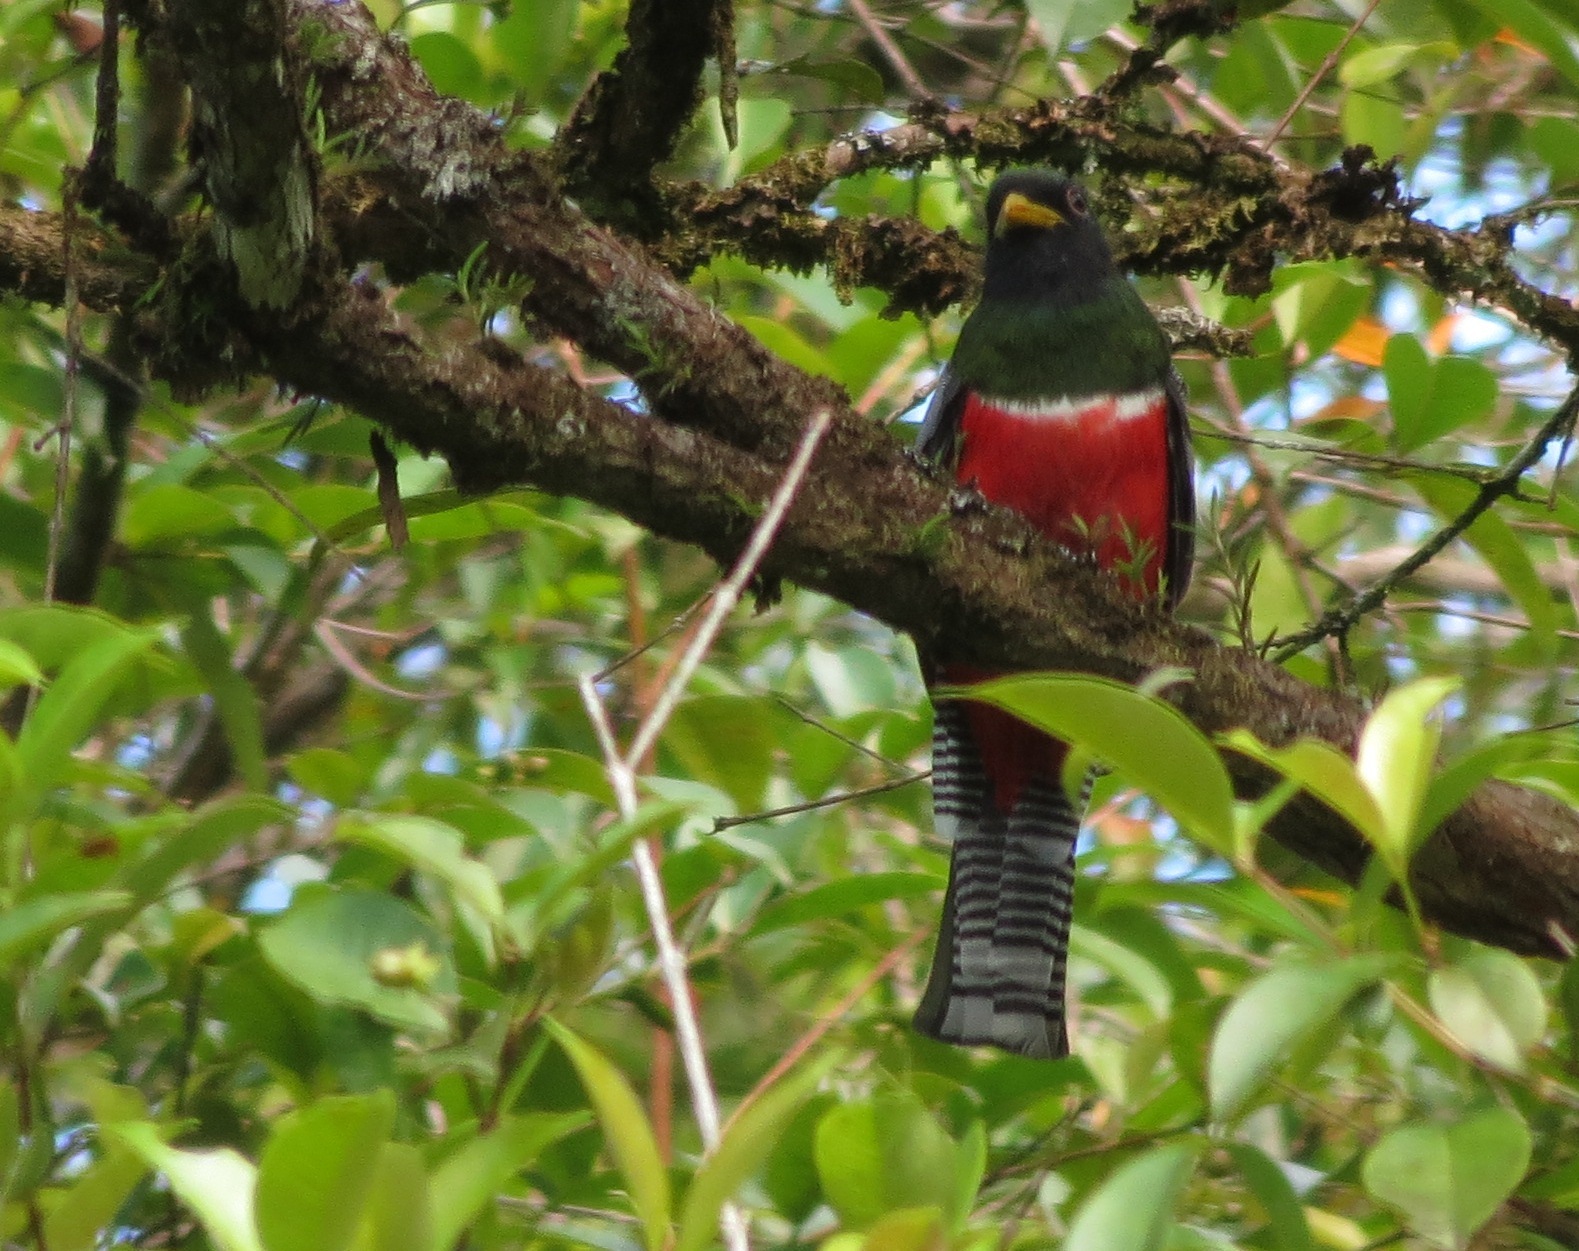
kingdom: Animalia
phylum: Chordata
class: Aves
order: Trogoniformes
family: Trogonidae
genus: Trogon
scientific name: Trogon collaris
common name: Collared trogon
